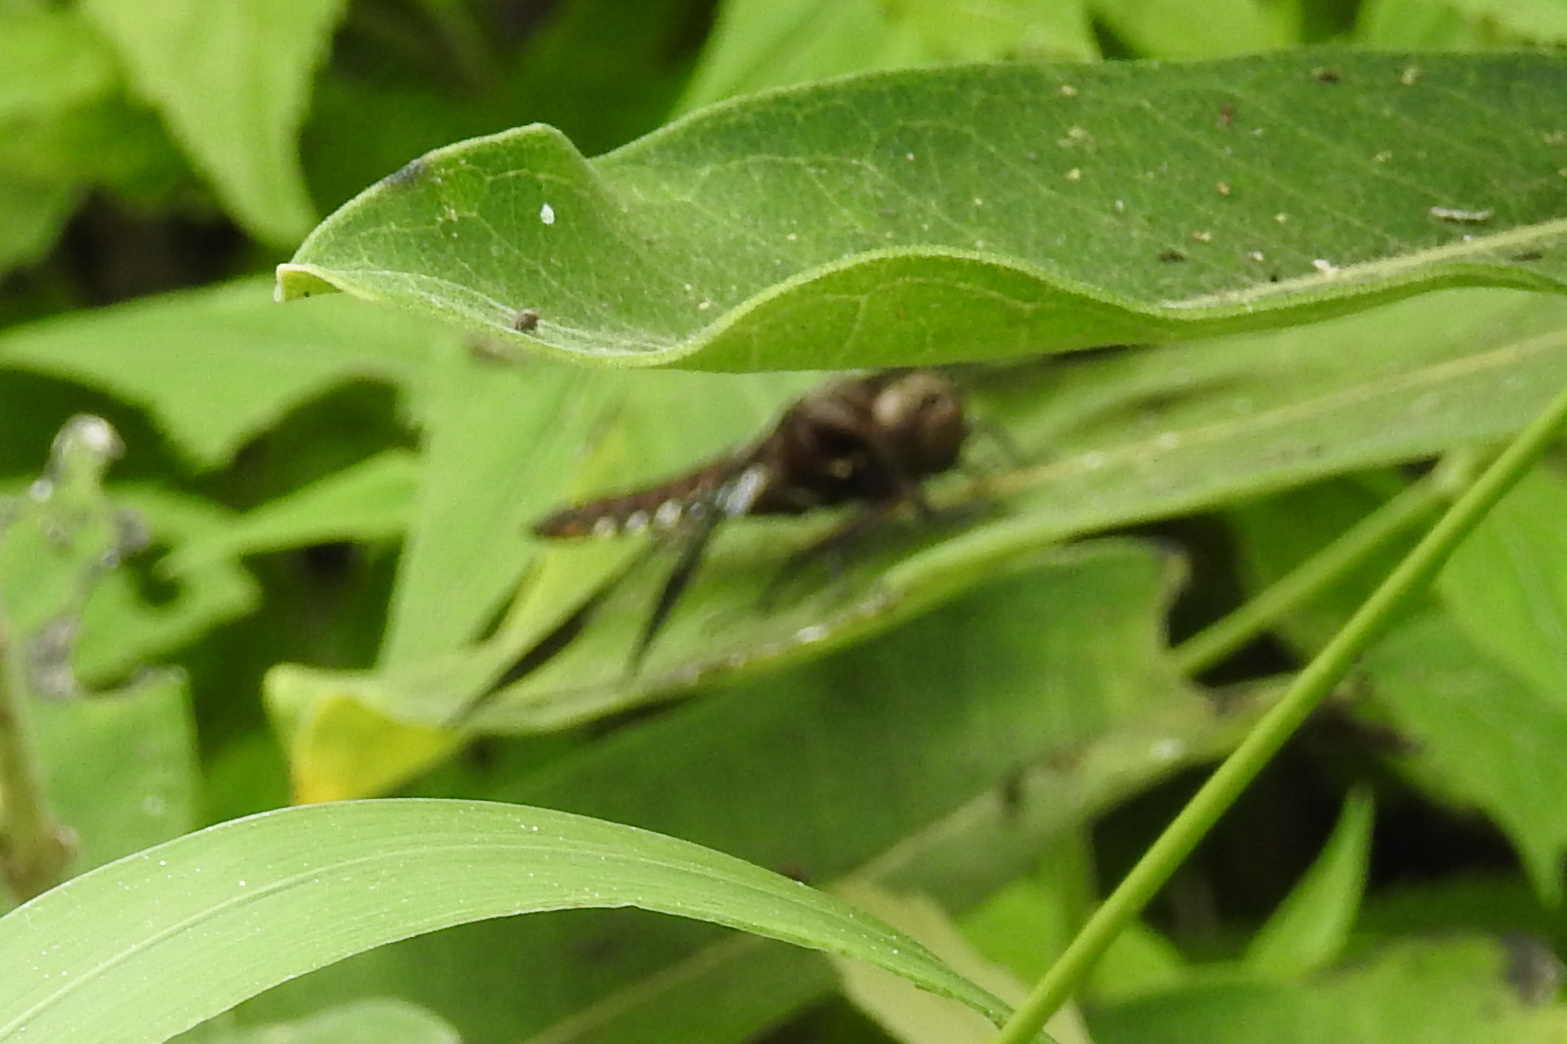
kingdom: Animalia
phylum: Arthropoda
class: Insecta
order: Odonata
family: Libellulidae
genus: Plathemis
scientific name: Plathemis lydia
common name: Common whitetail
